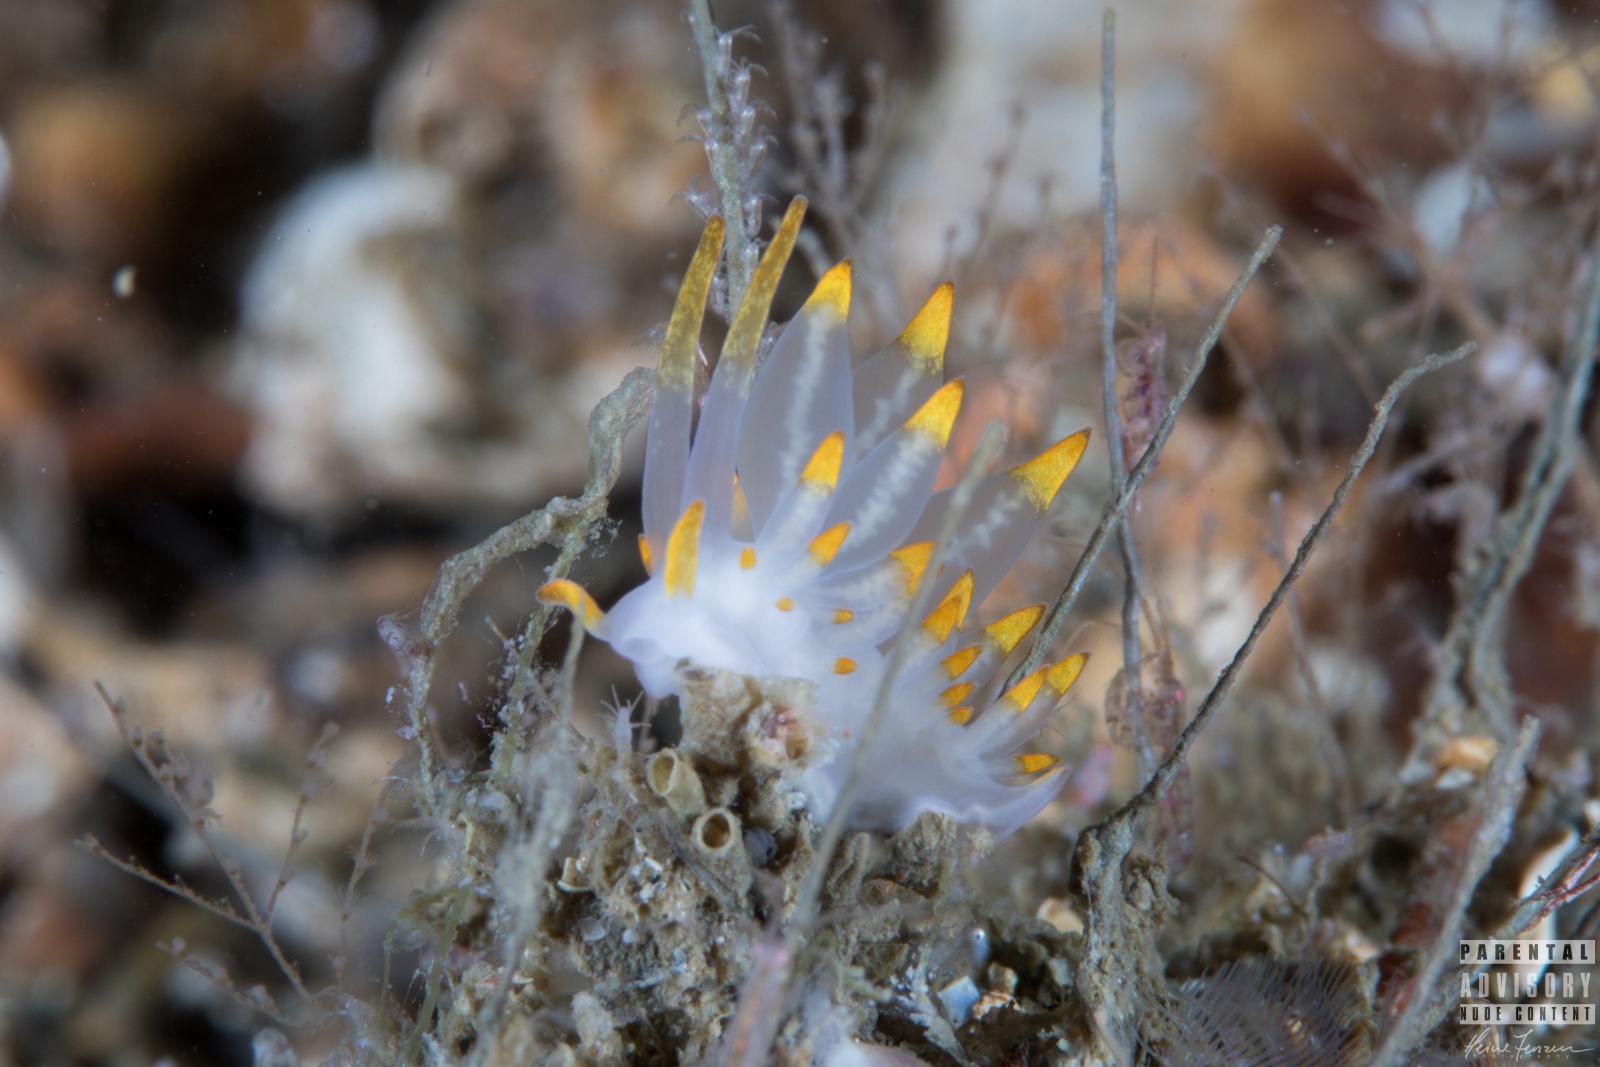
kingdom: Animalia
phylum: Mollusca
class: Gastropoda
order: Nudibranchia
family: Eubranchidae
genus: Amphorina
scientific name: Amphorina farrani
